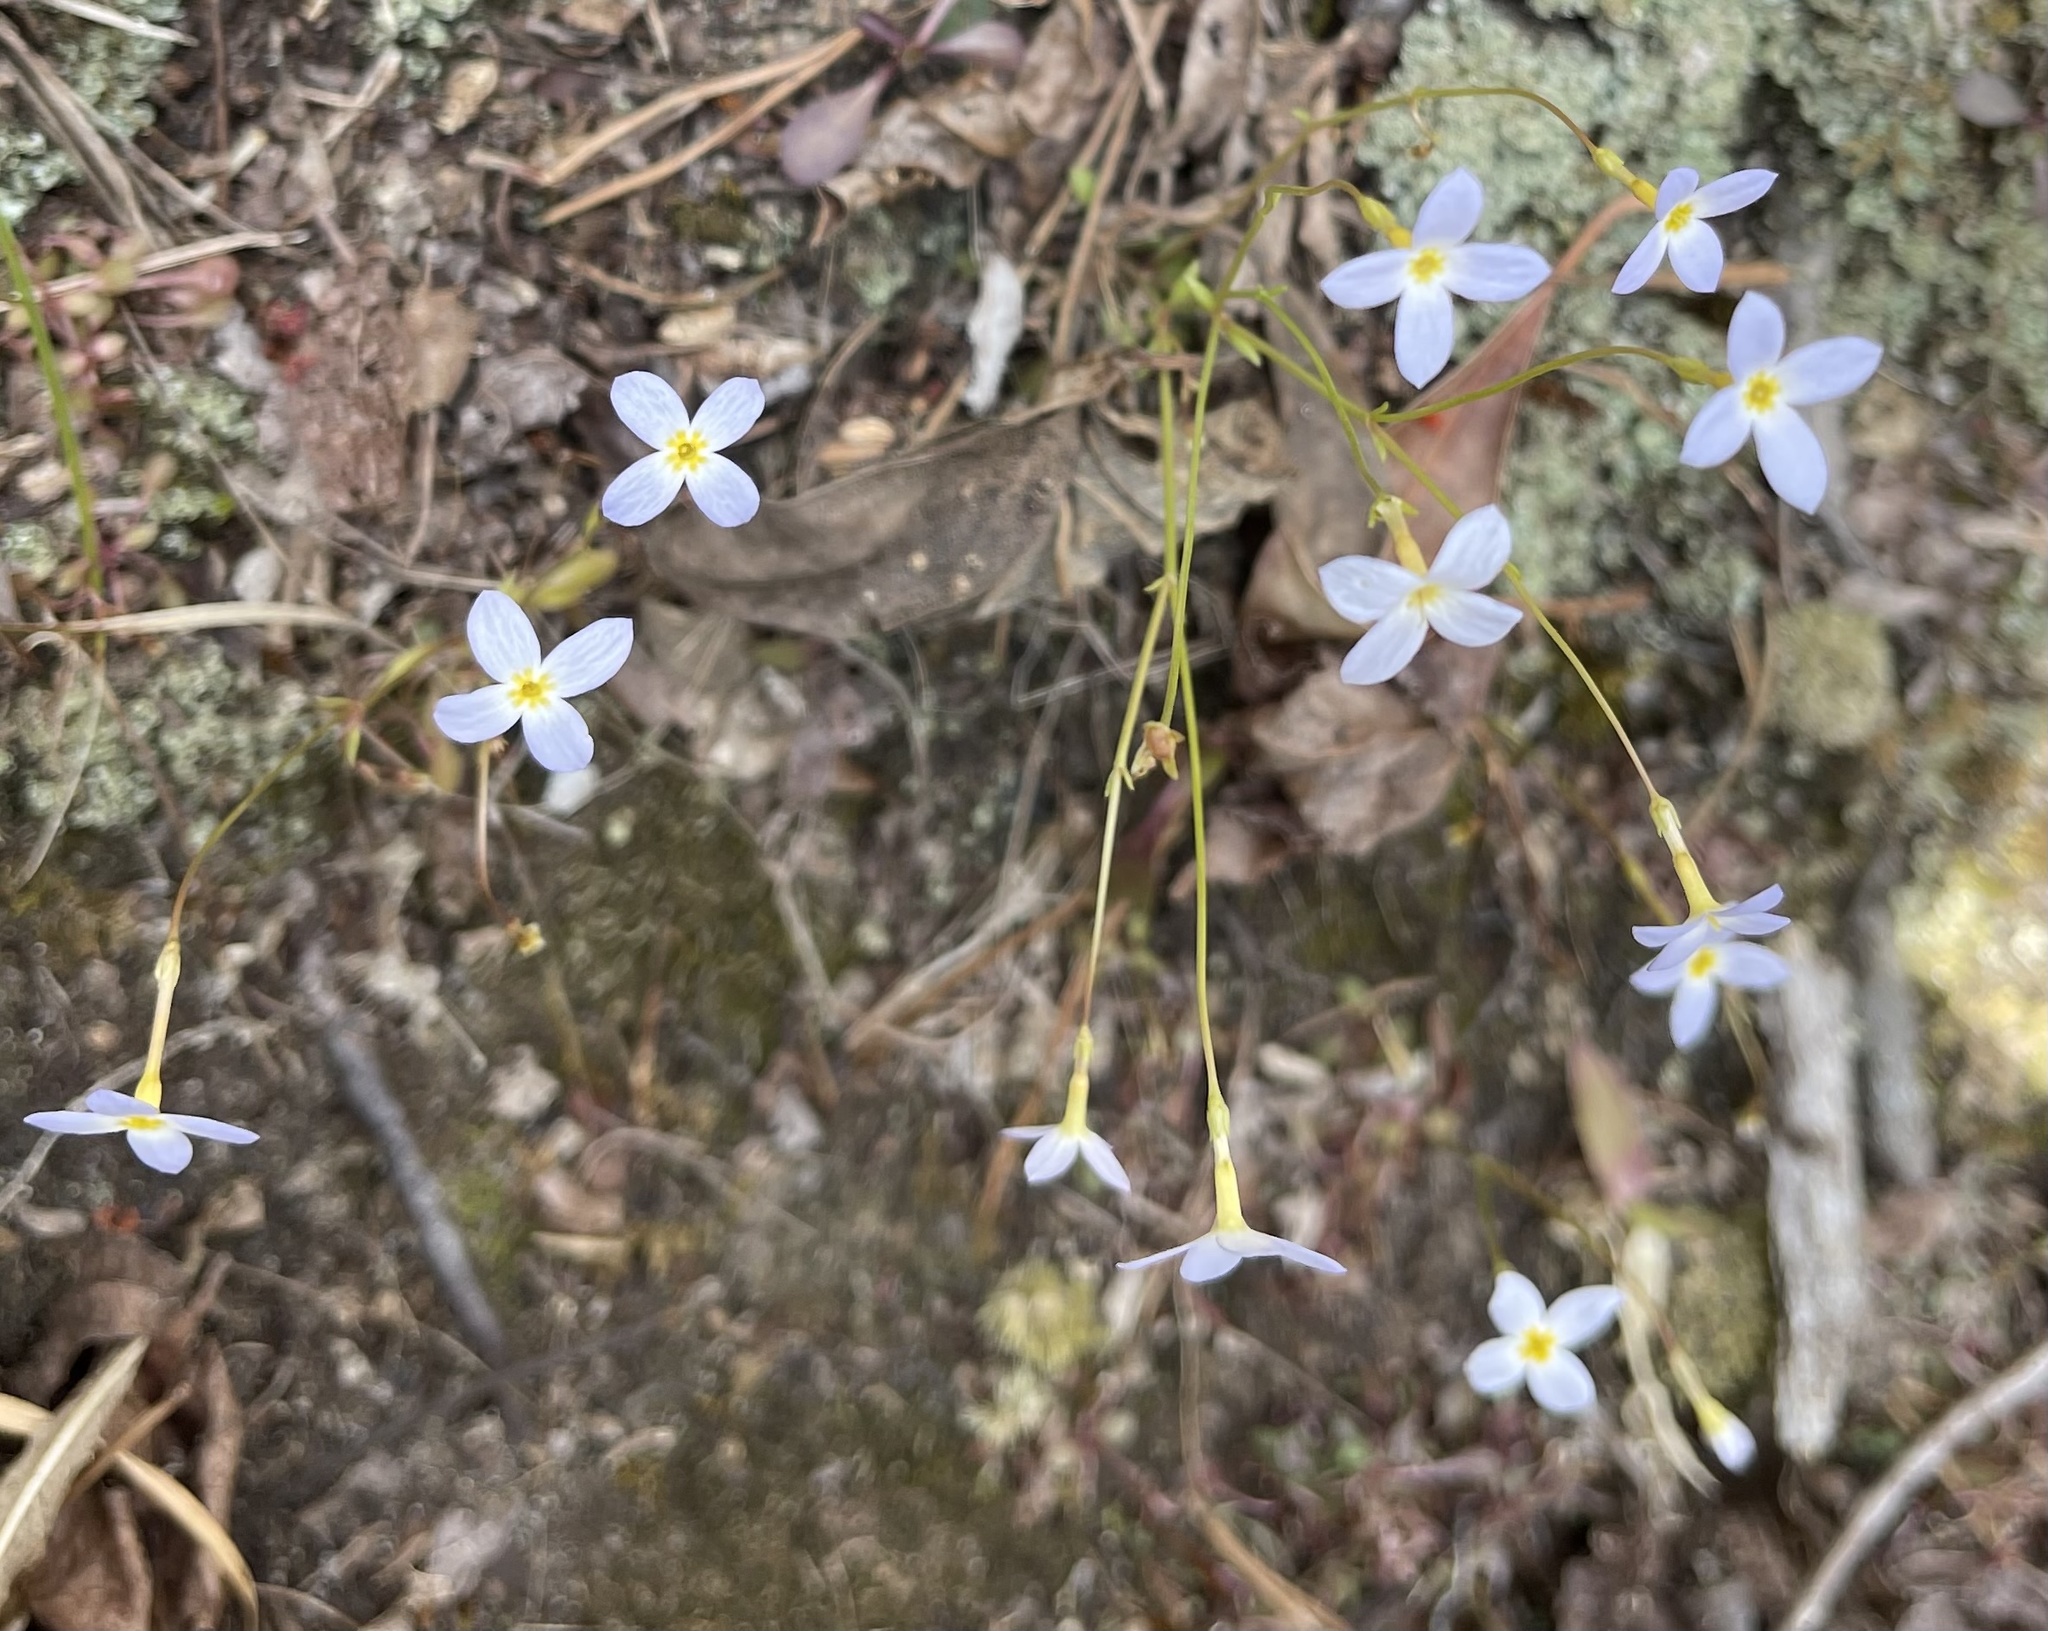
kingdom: Plantae
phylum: Tracheophyta
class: Magnoliopsida
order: Gentianales
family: Rubiaceae
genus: Houstonia
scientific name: Houstonia caerulea
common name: Bluets
